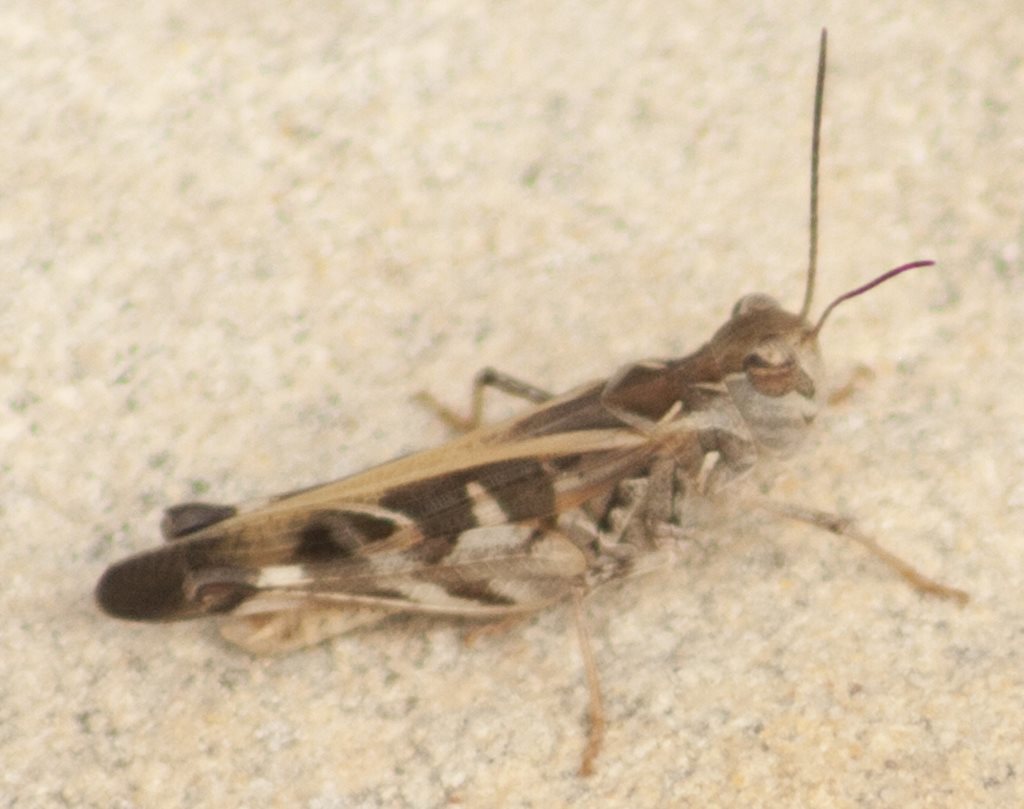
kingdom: Animalia
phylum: Arthropoda
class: Insecta
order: Orthoptera
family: Acrididae
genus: Oedaleus
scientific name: Oedaleus australis
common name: Eastern oedaleus
